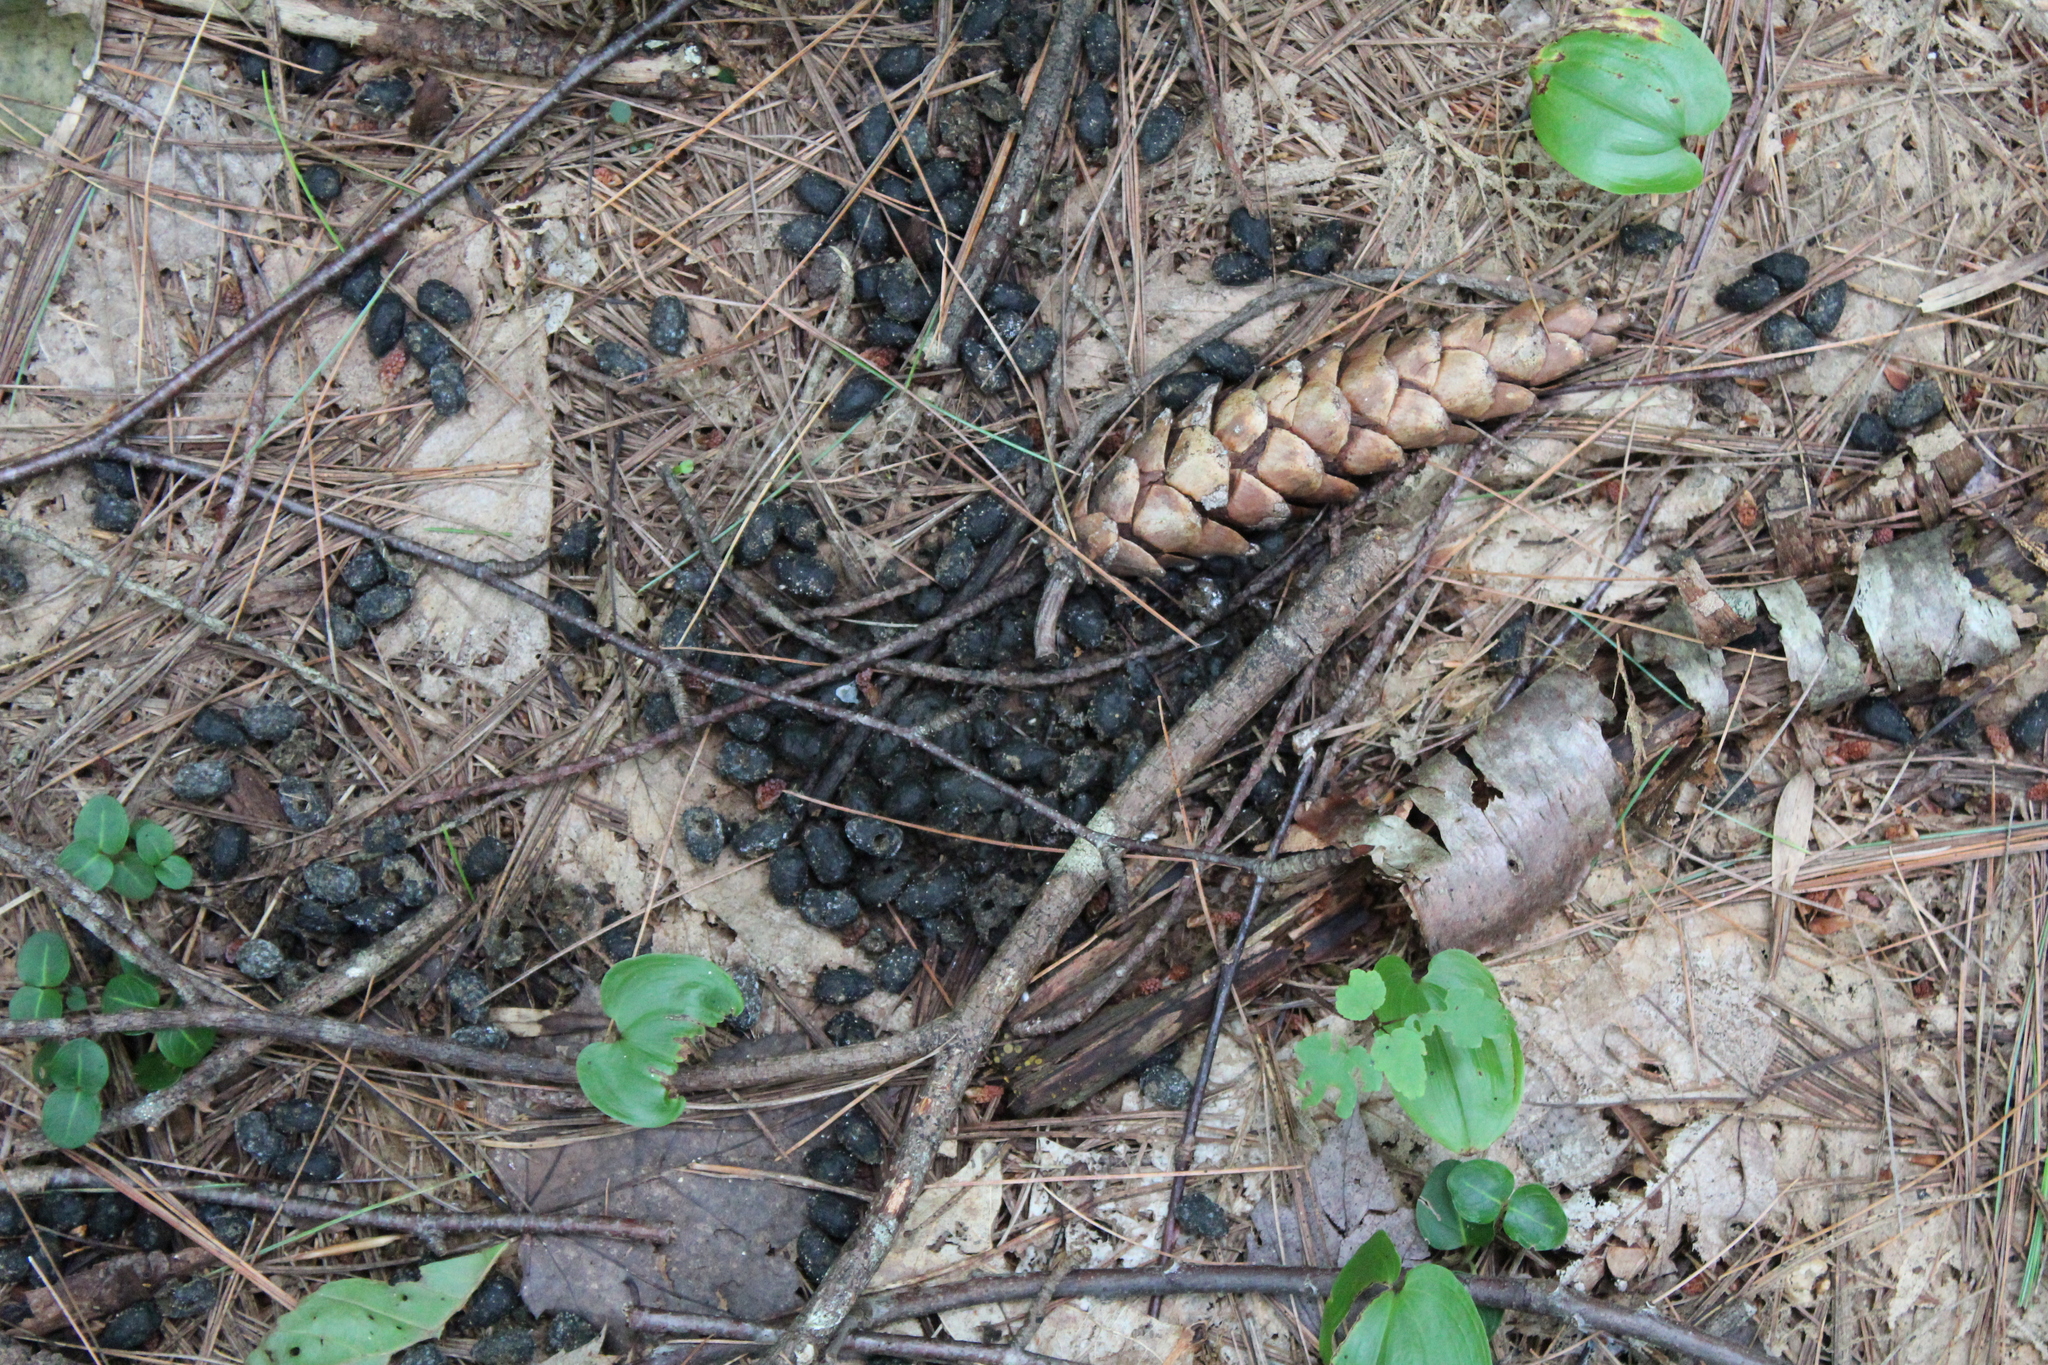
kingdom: Animalia
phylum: Chordata
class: Mammalia
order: Artiodactyla
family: Cervidae
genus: Odocoileus
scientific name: Odocoileus virginianus
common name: White-tailed deer
